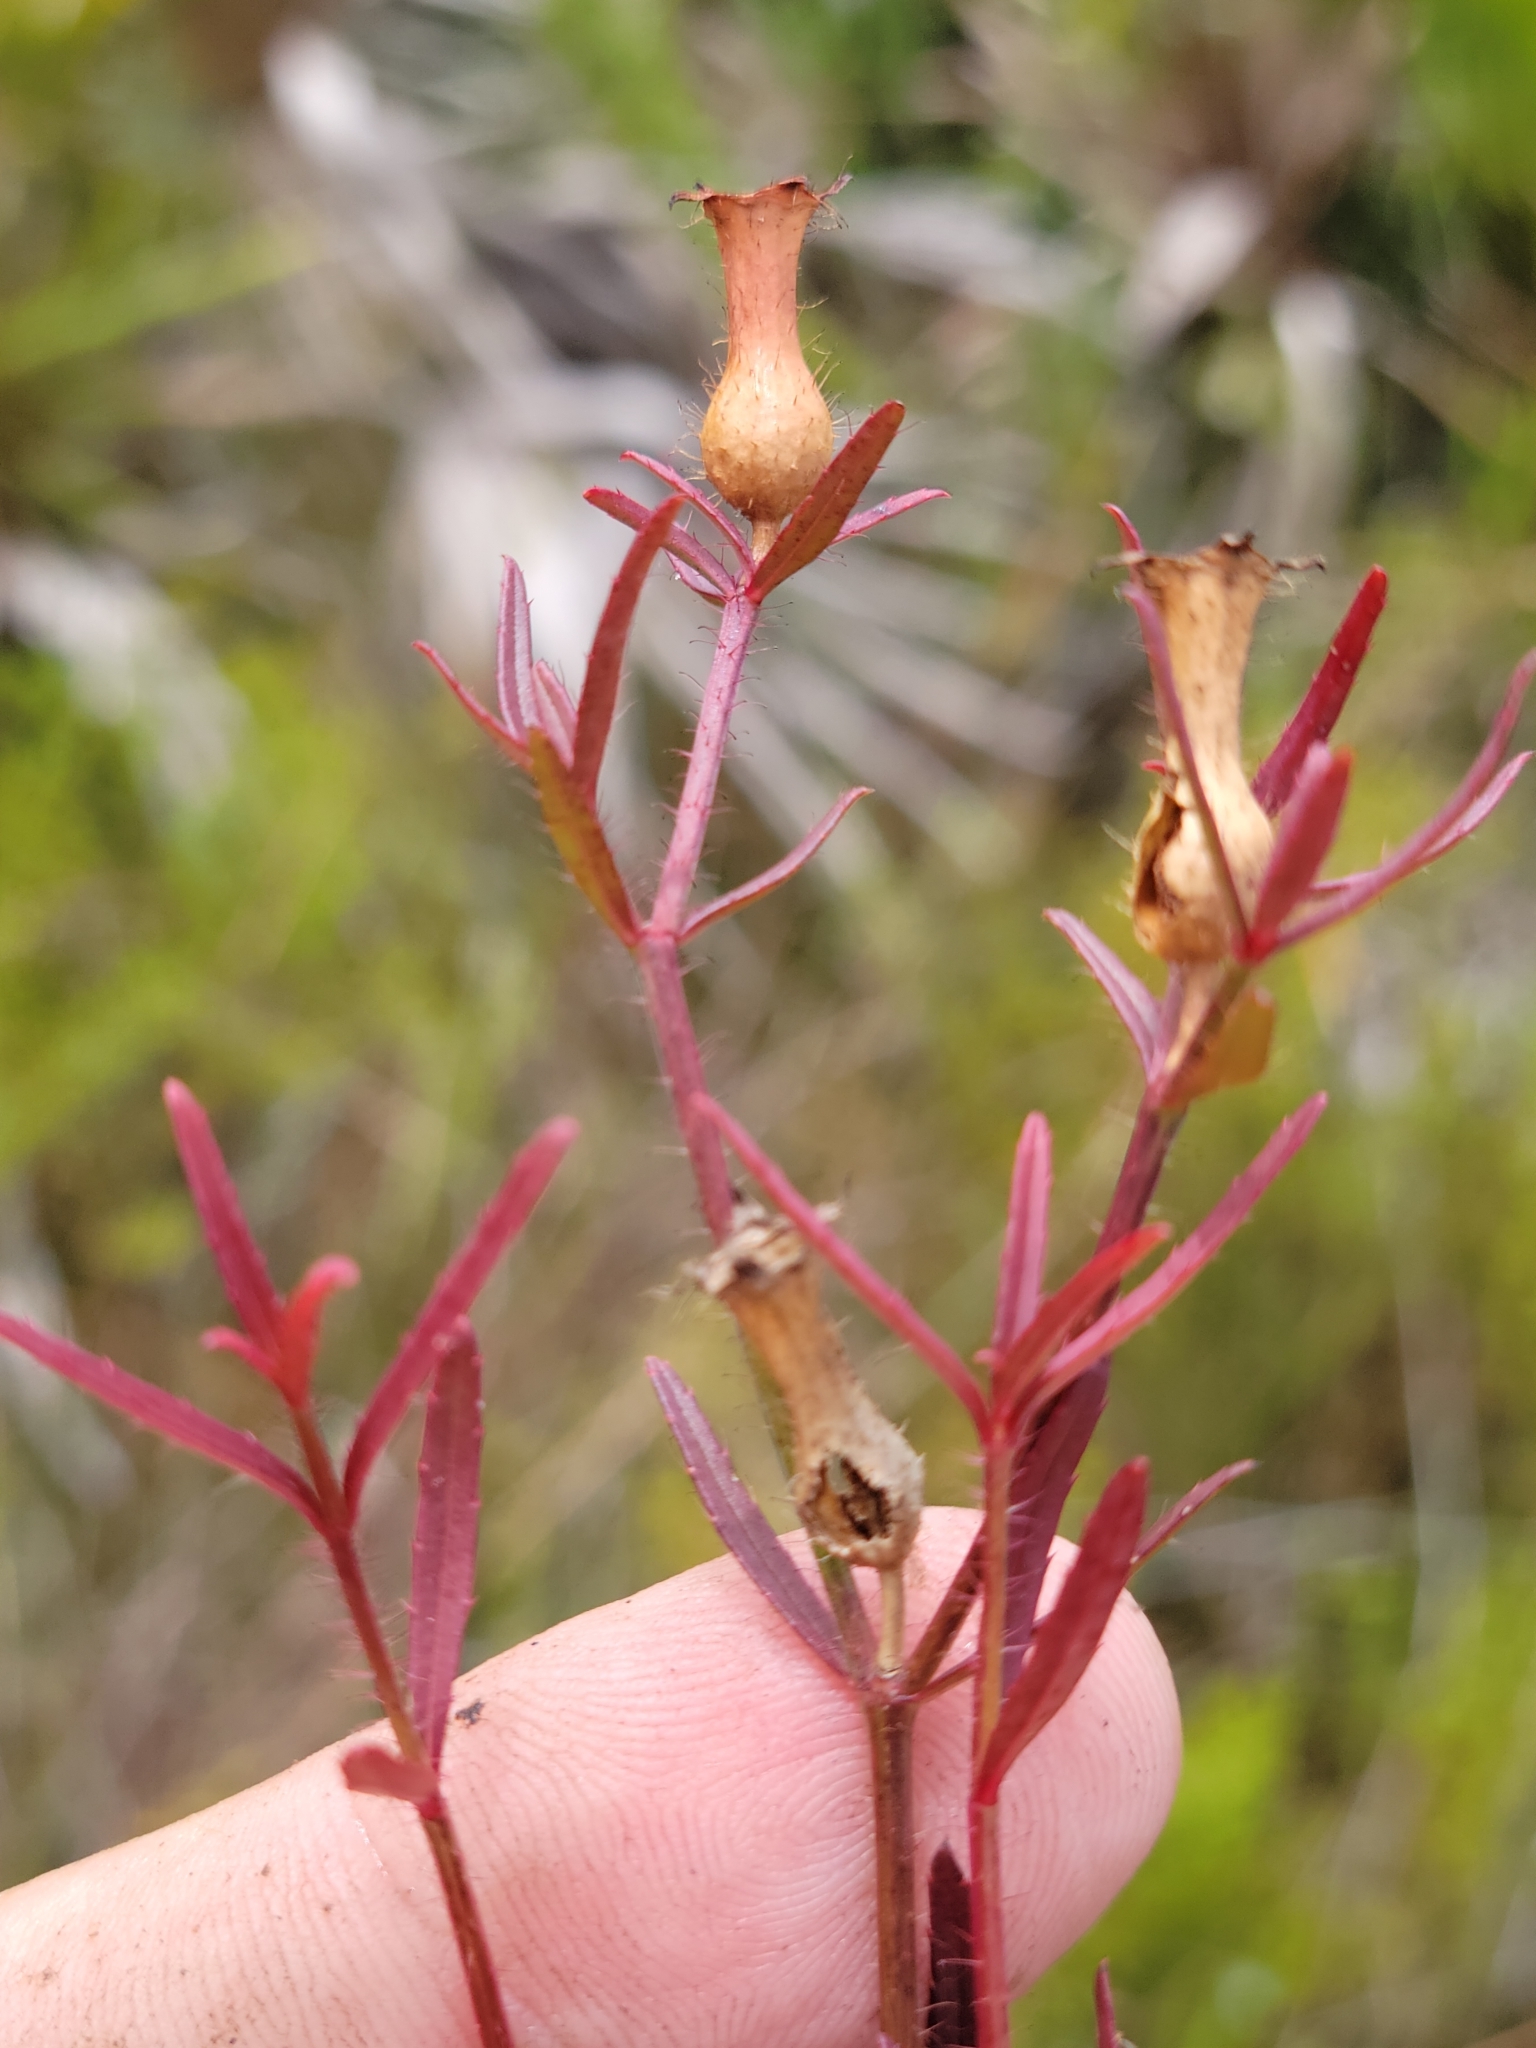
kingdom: Plantae
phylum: Tracheophyta
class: Magnoliopsida
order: Myrtales
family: Melastomataceae
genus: Rhexia
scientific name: Rhexia cubensis
